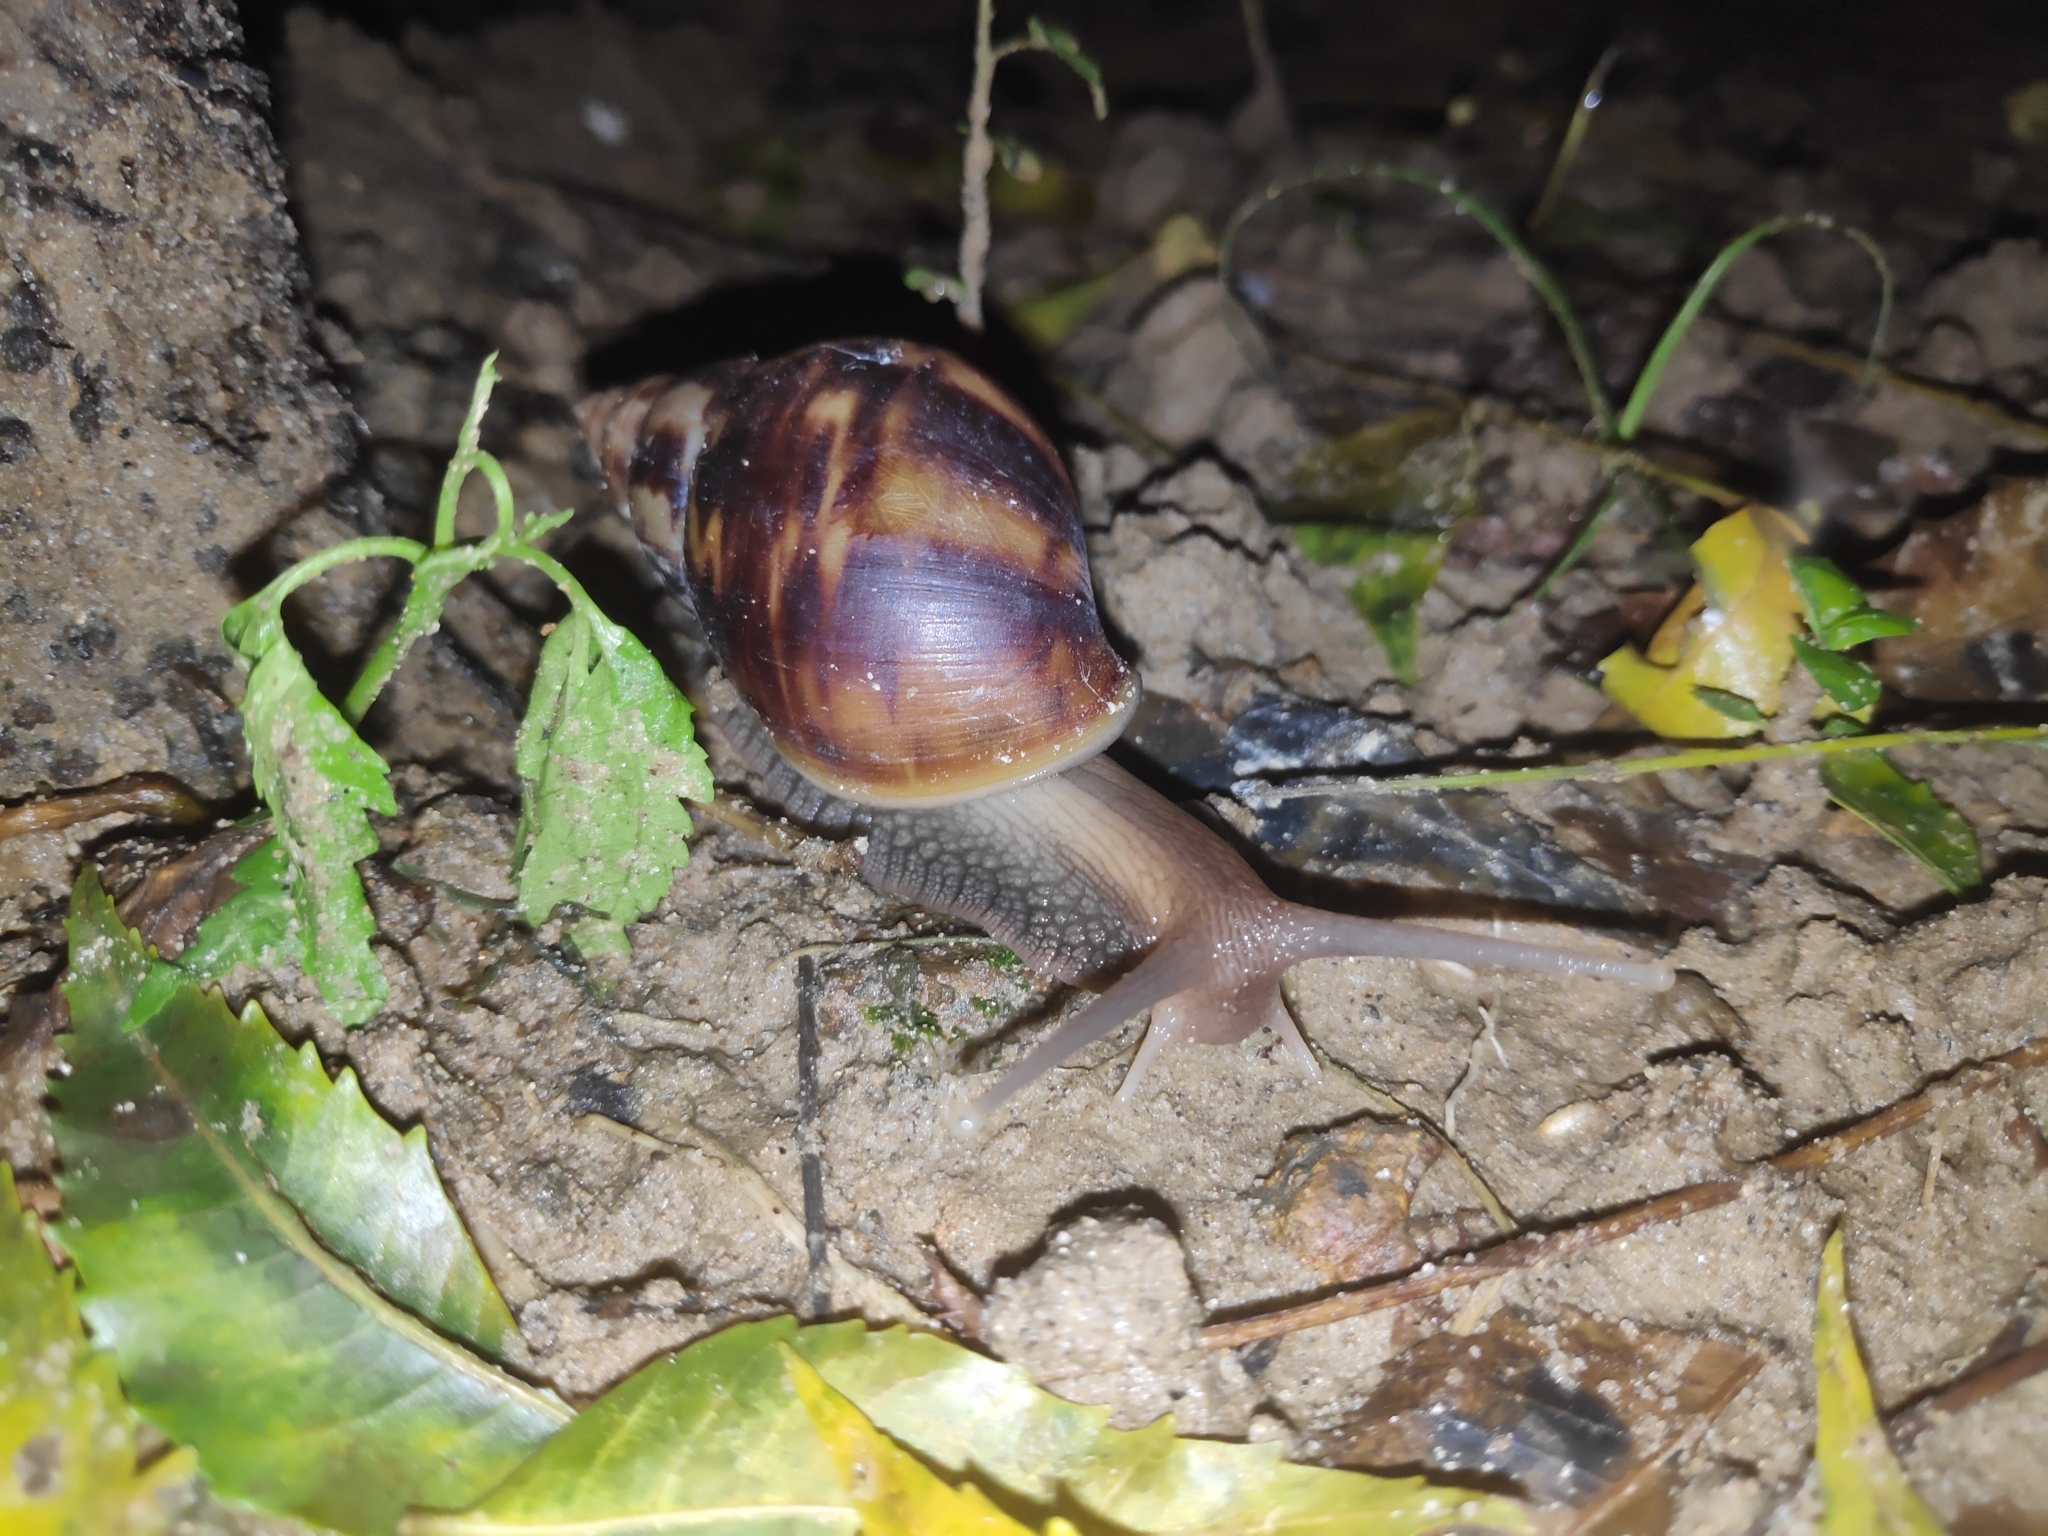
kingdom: Animalia
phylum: Mollusca
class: Gastropoda
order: Stylommatophora
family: Achatinidae
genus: Lissachatina
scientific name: Lissachatina fulica
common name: Giant african snail
